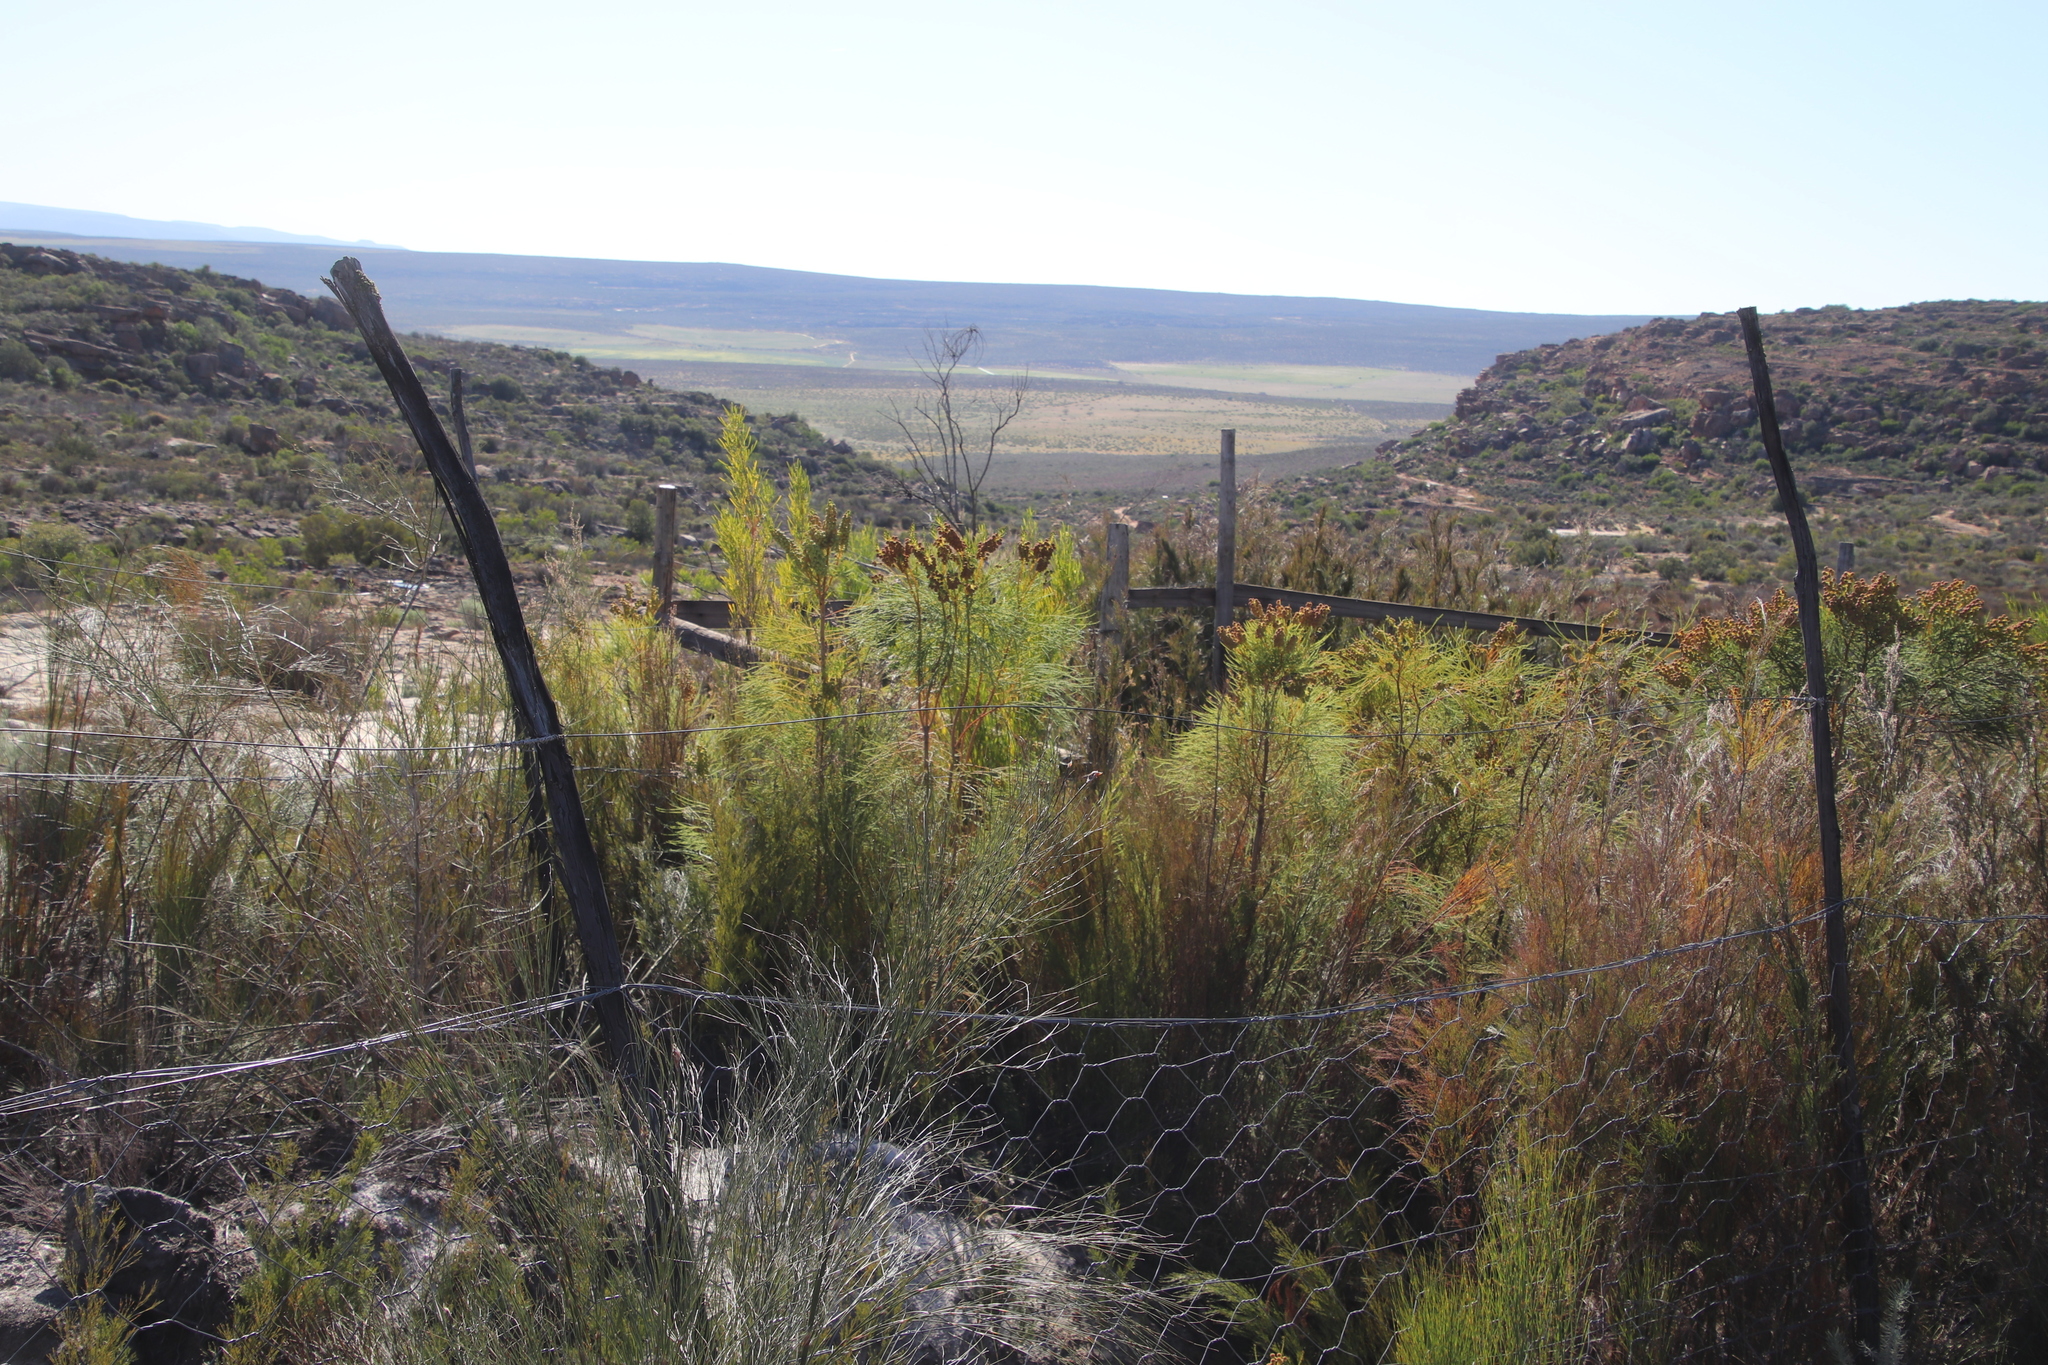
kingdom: Plantae
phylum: Tracheophyta
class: Magnoliopsida
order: Bruniales
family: Bruniaceae
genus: Berzelia
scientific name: Berzelia lanuginosa
